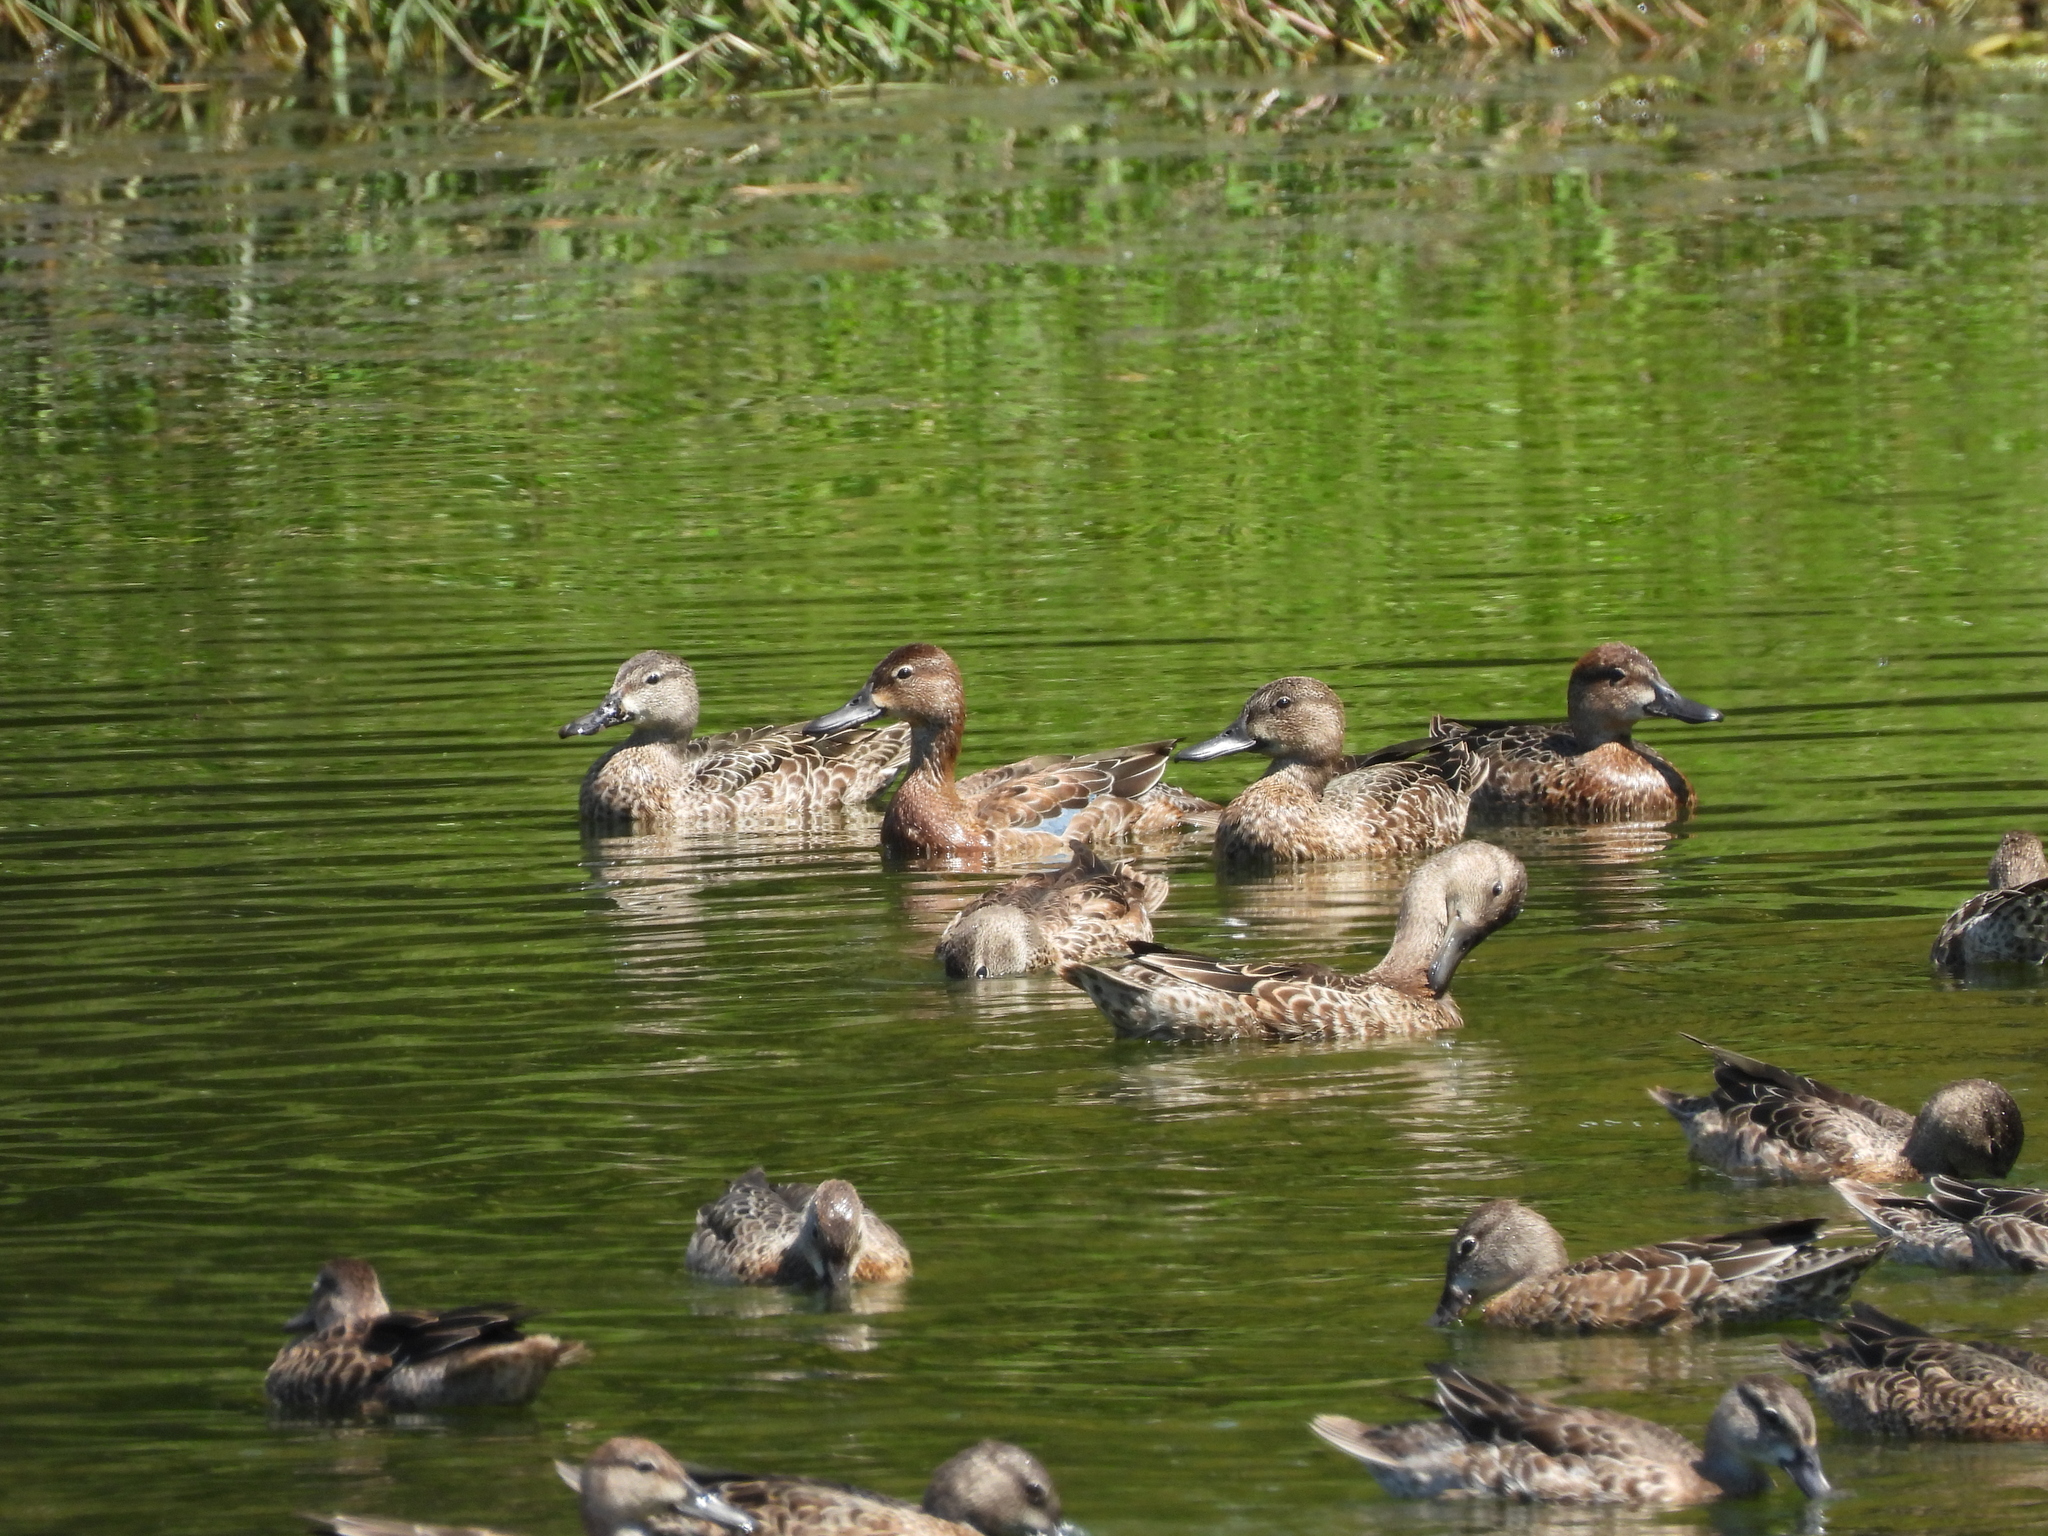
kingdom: Animalia
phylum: Chordata
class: Aves
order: Anseriformes
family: Anatidae
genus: Spatula
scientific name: Spatula discors
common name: Blue-winged teal
